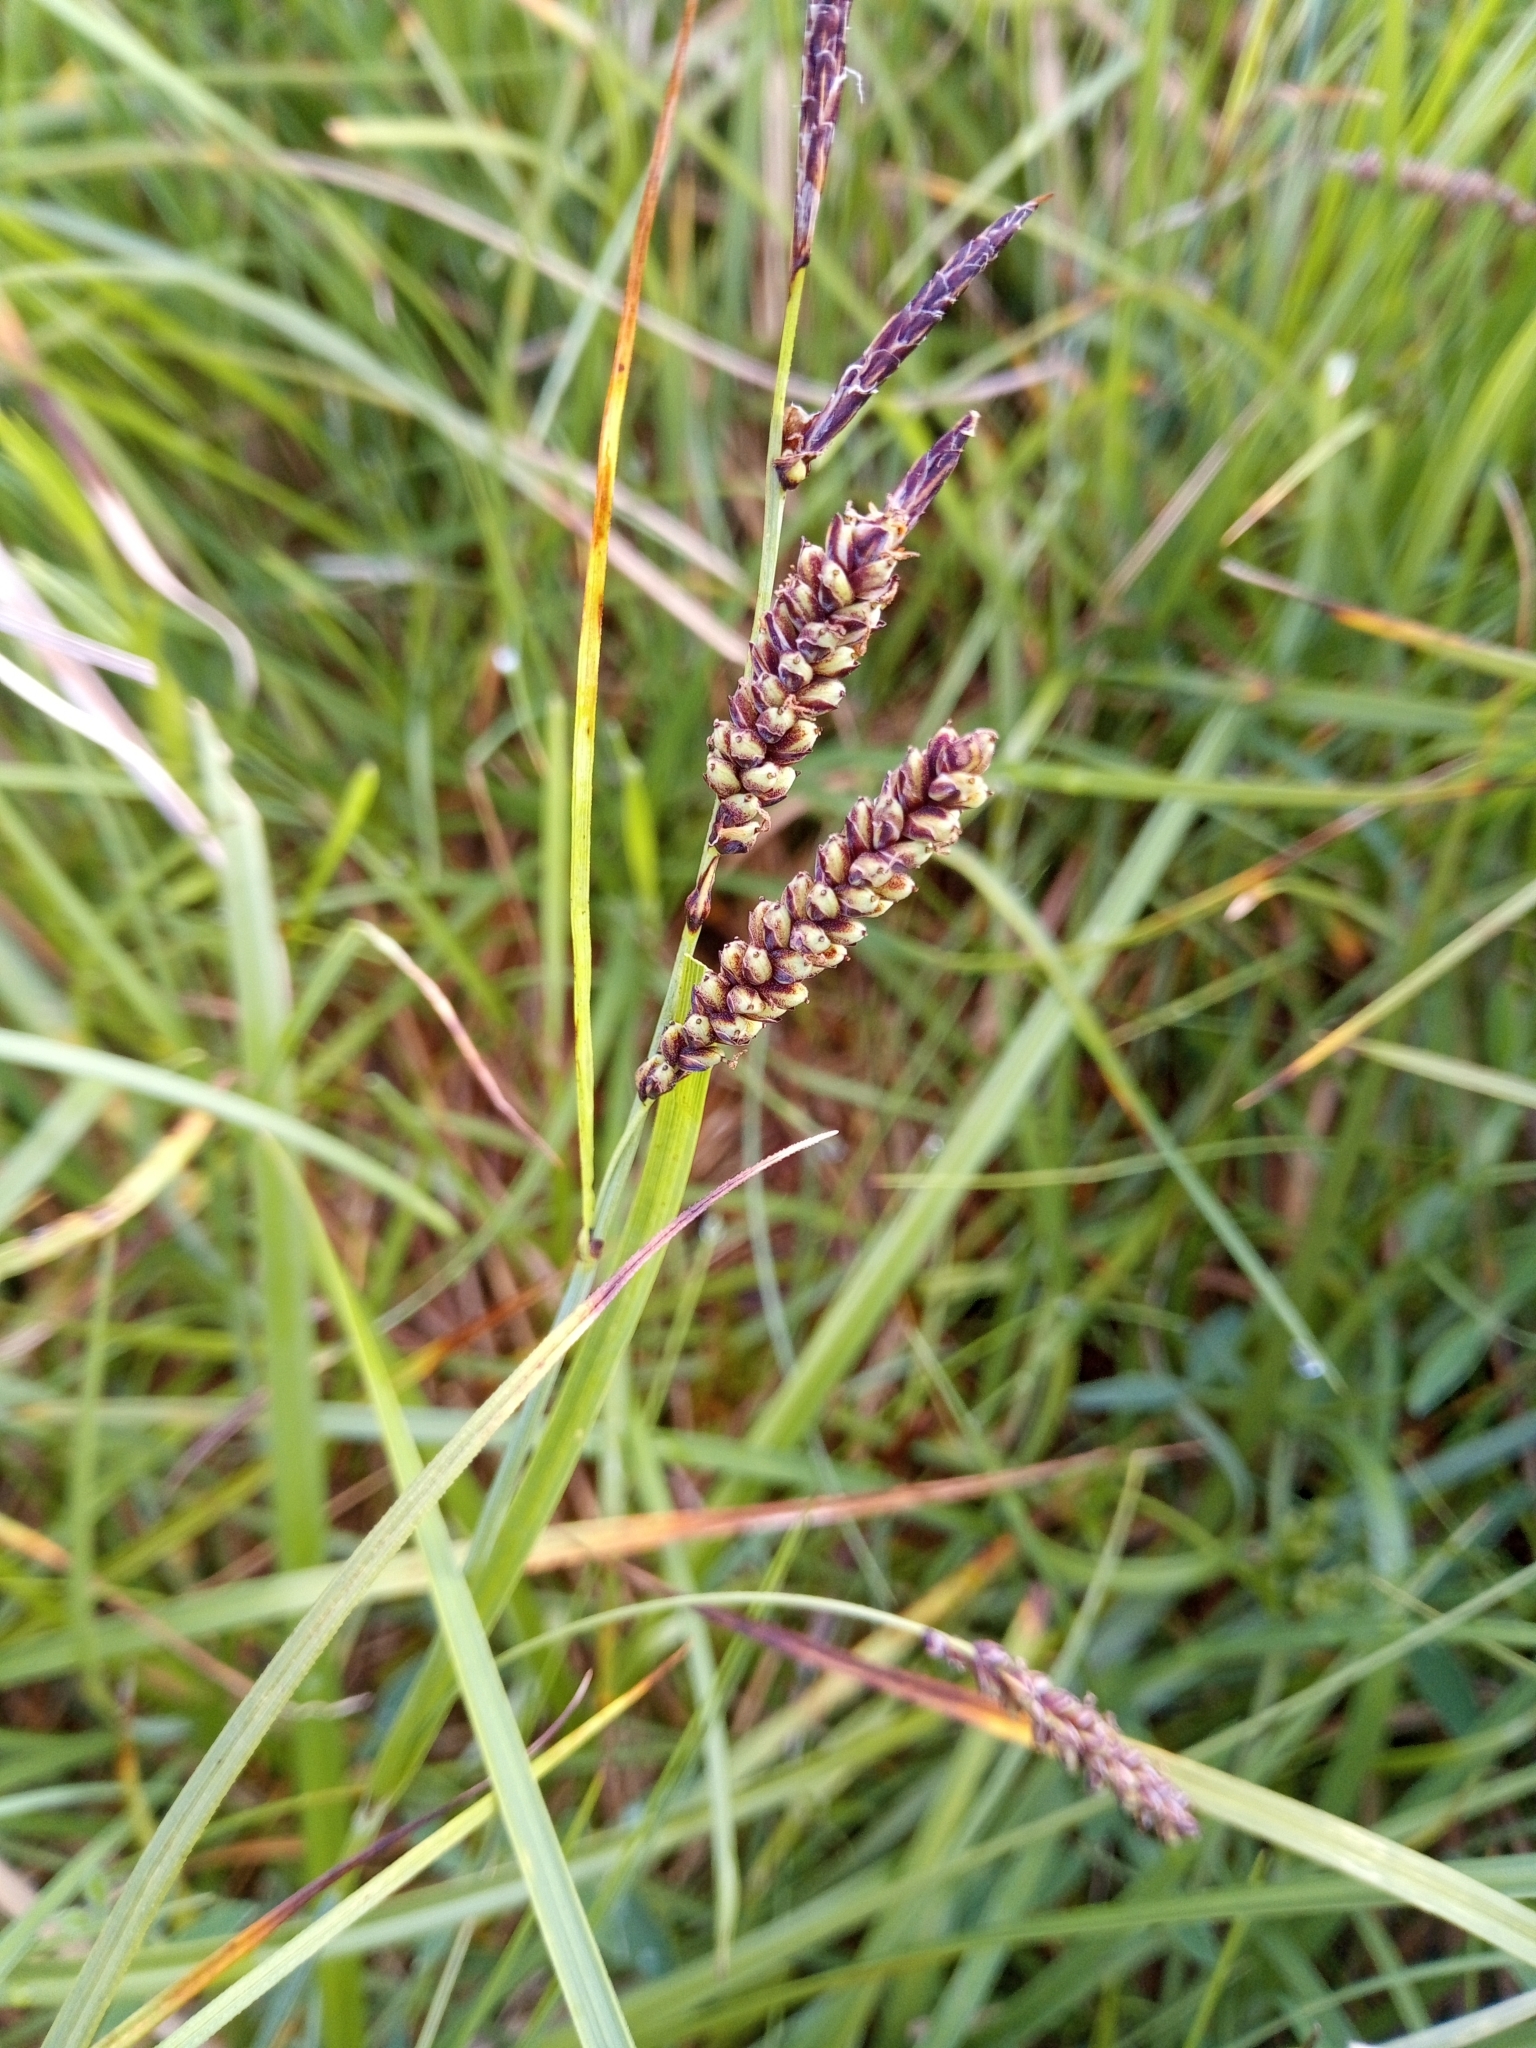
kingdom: Plantae
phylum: Tracheophyta
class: Liliopsida
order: Poales
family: Cyperaceae
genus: Carex
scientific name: Carex flacca
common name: Glaucous sedge
